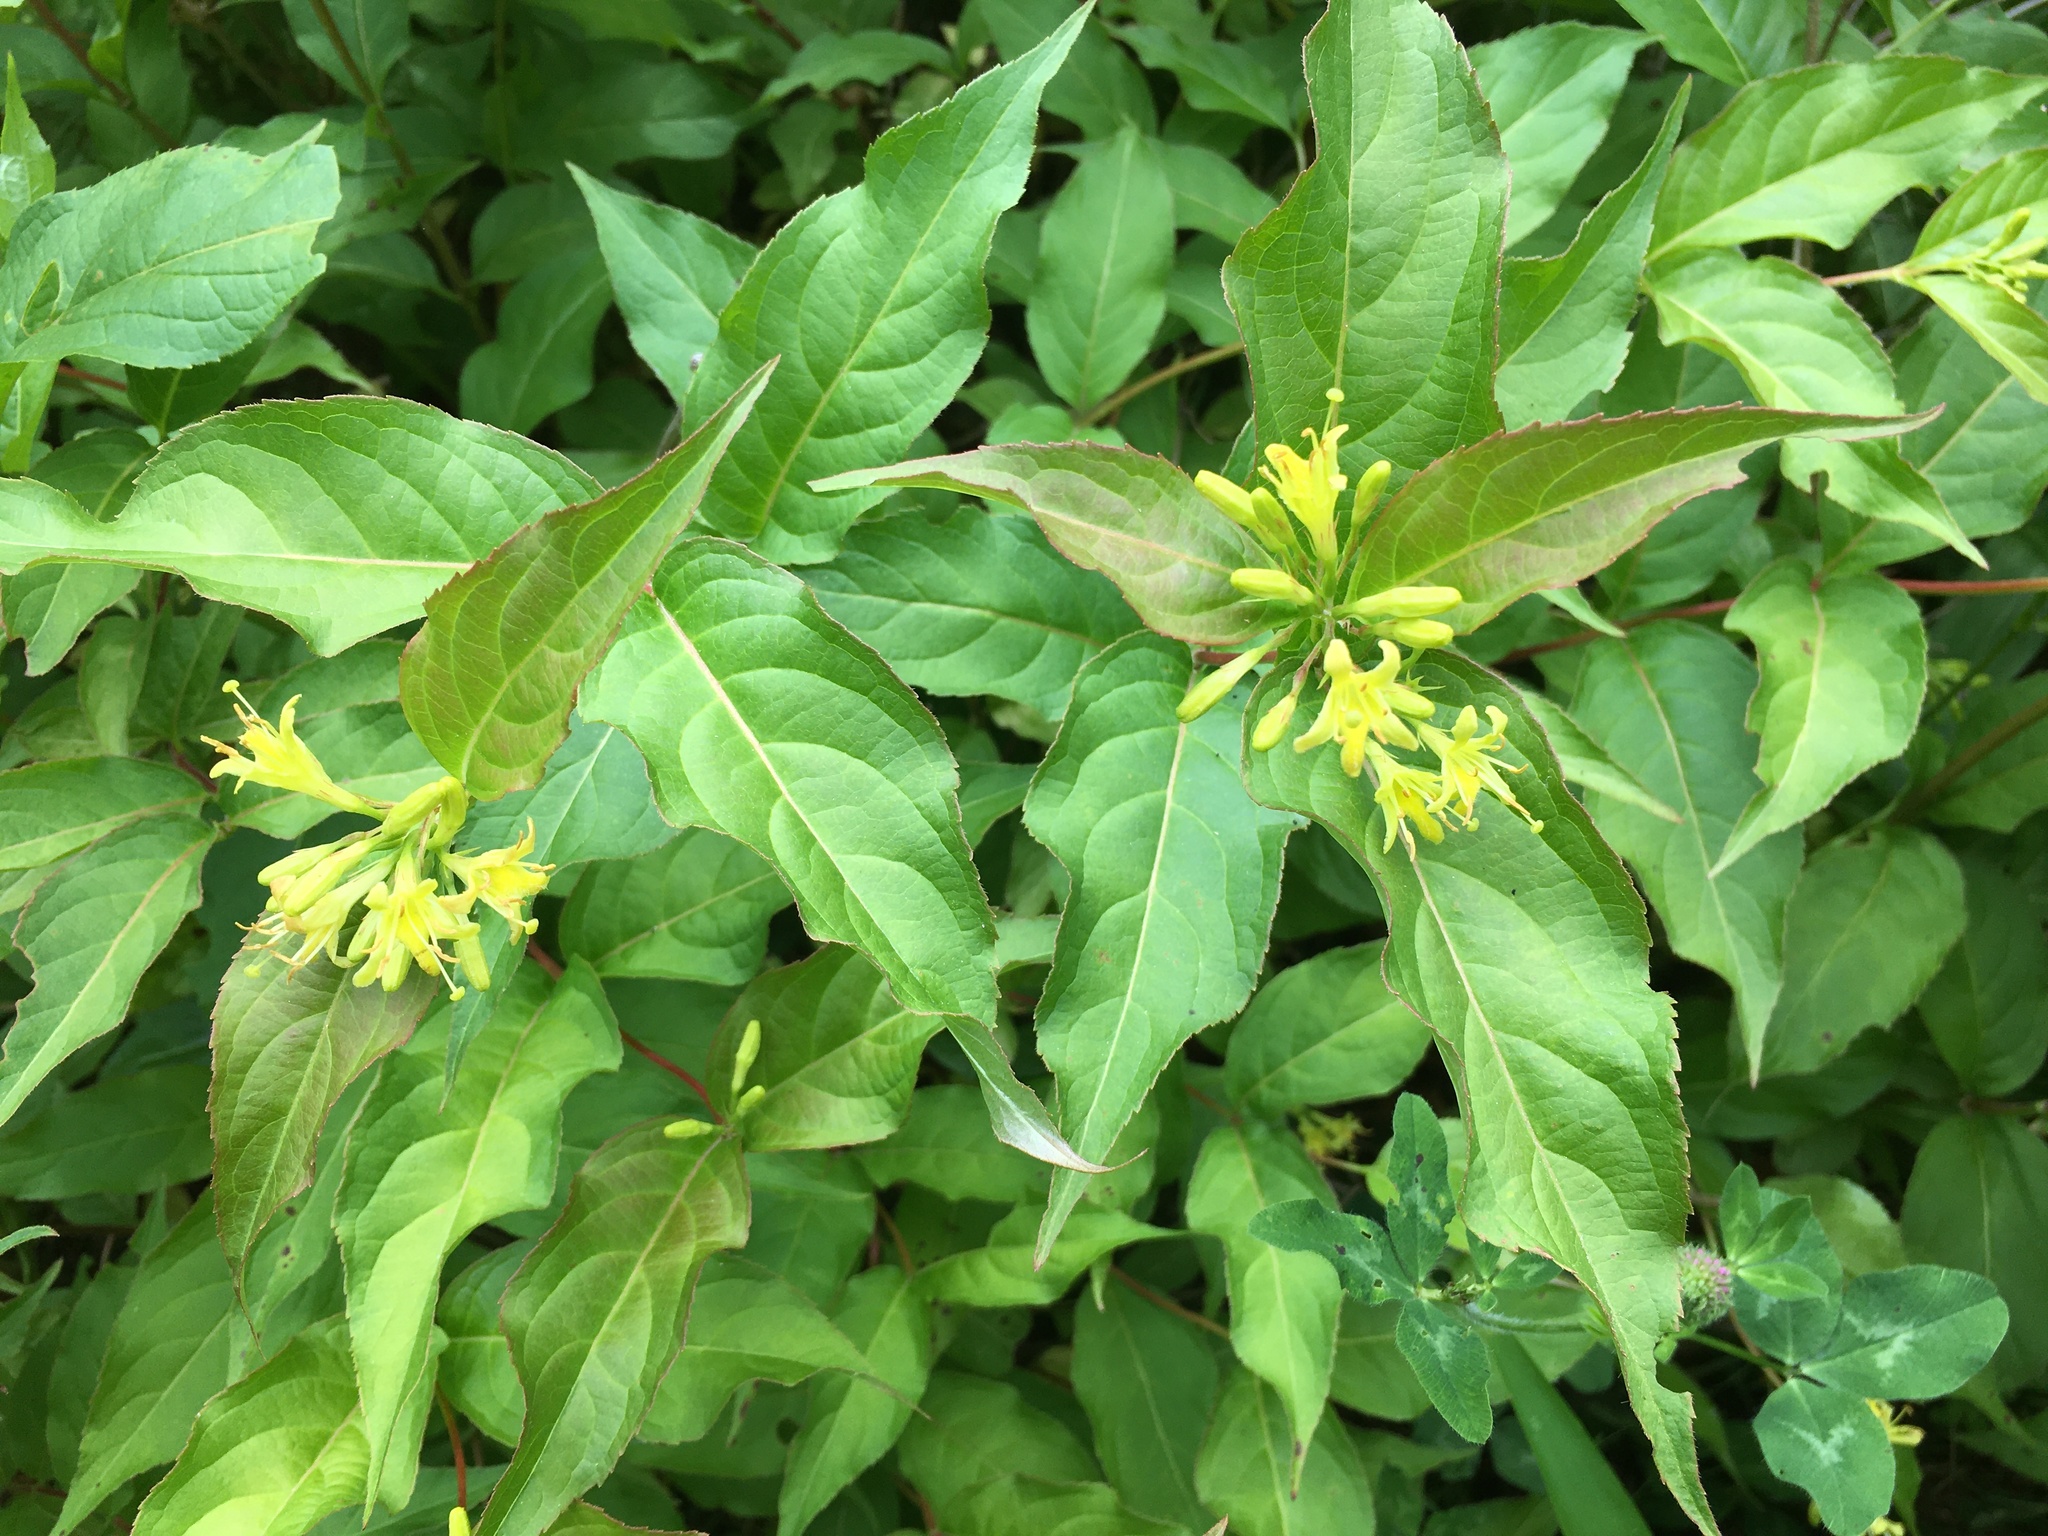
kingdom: Plantae
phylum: Tracheophyta
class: Magnoliopsida
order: Dipsacales
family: Caprifoliaceae
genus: Diervilla
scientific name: Diervilla lonicera
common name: Bush-honeysuckle
